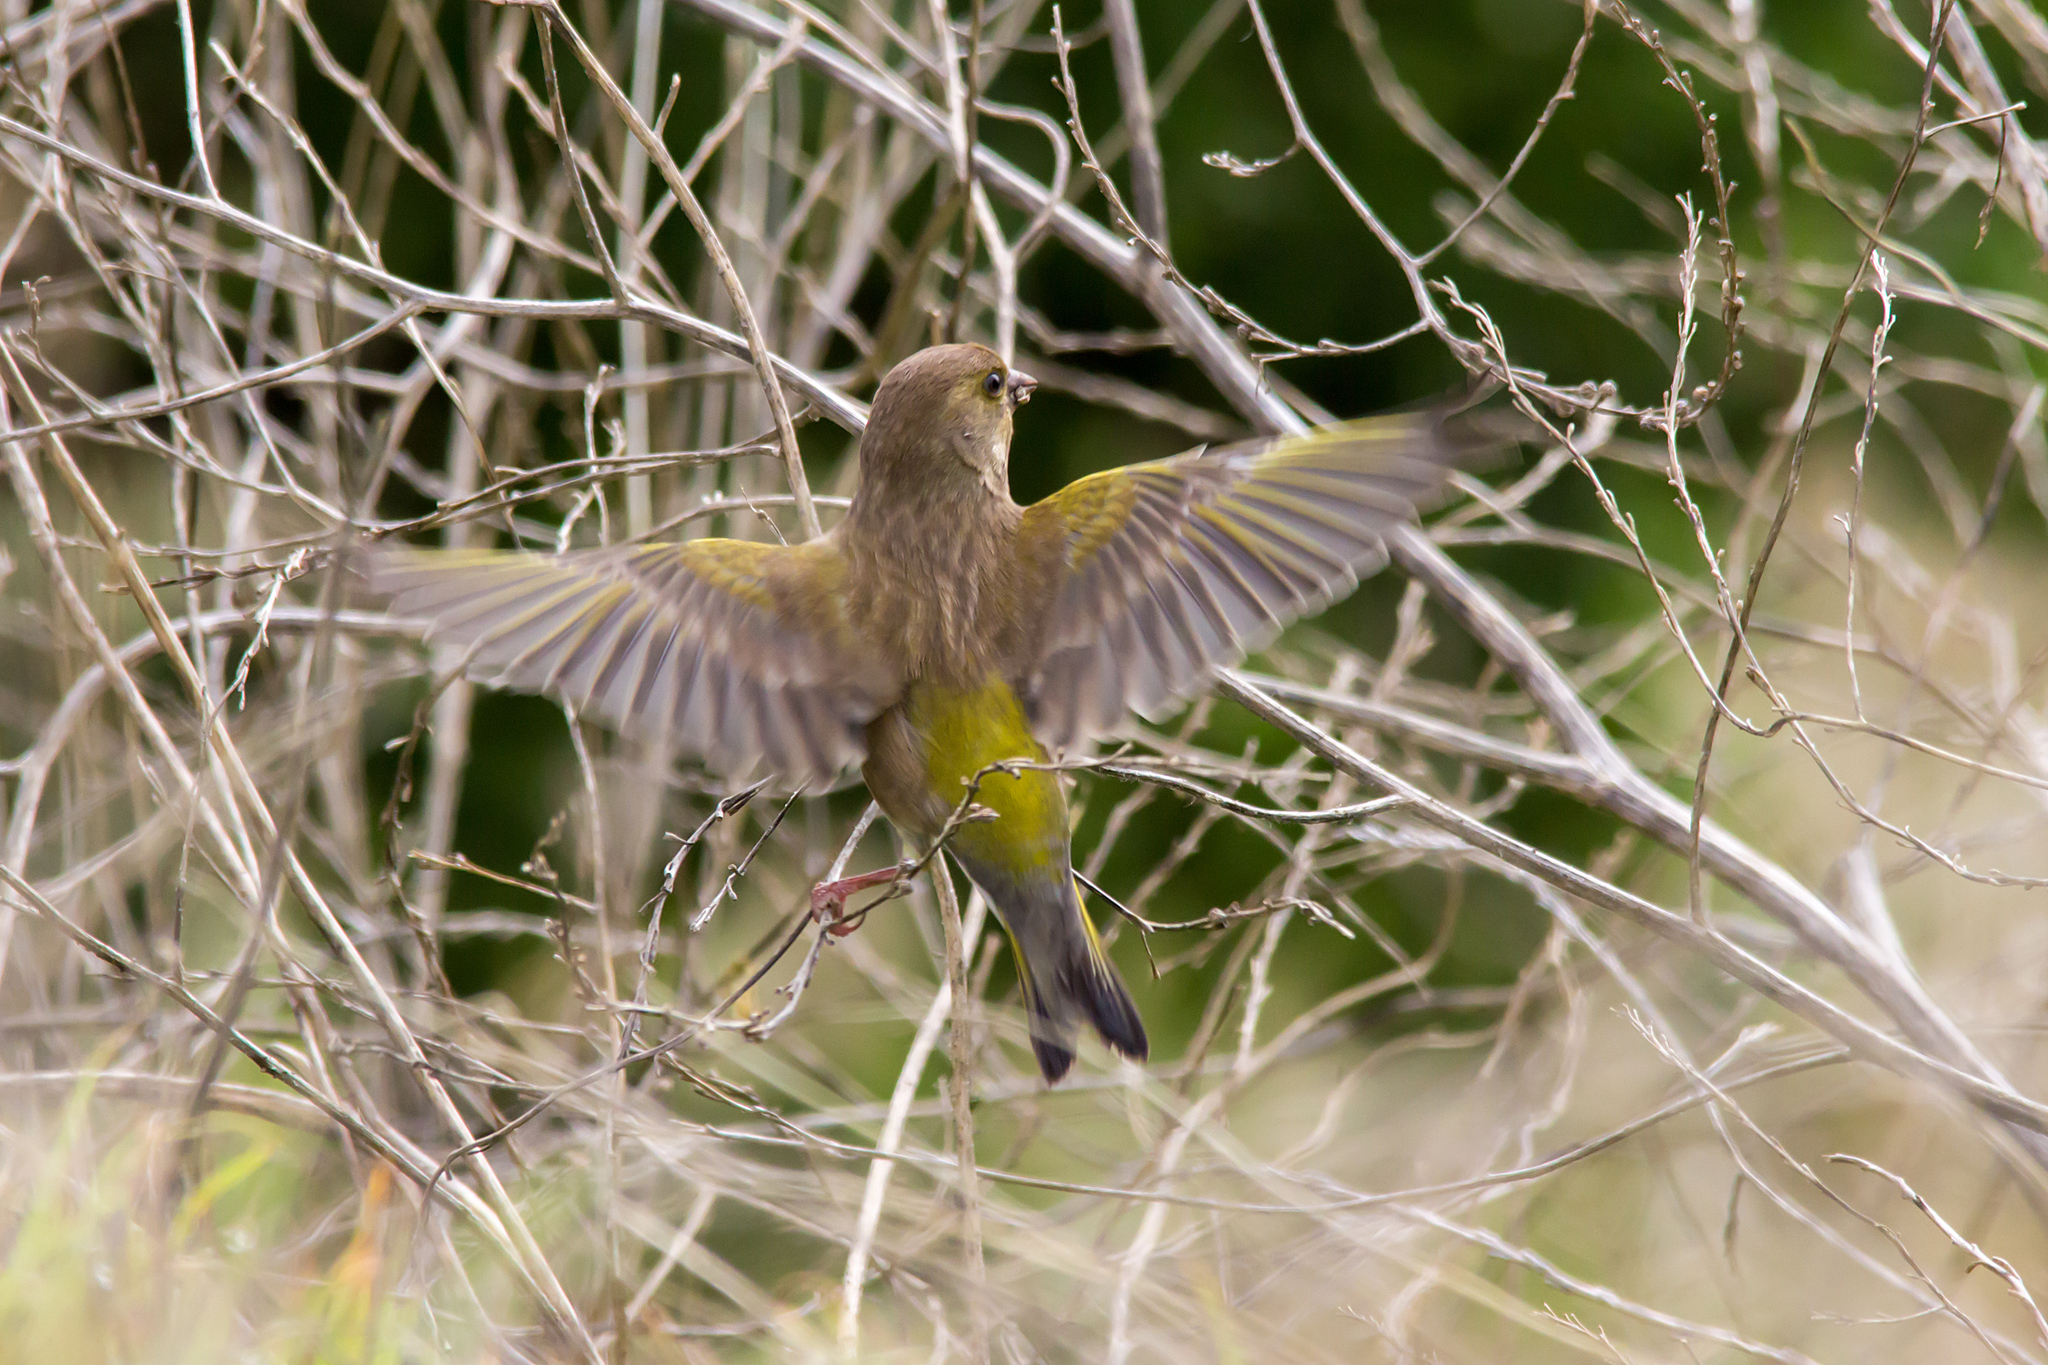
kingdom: Plantae
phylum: Tracheophyta
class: Liliopsida
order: Poales
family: Poaceae
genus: Chloris
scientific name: Chloris chloris
